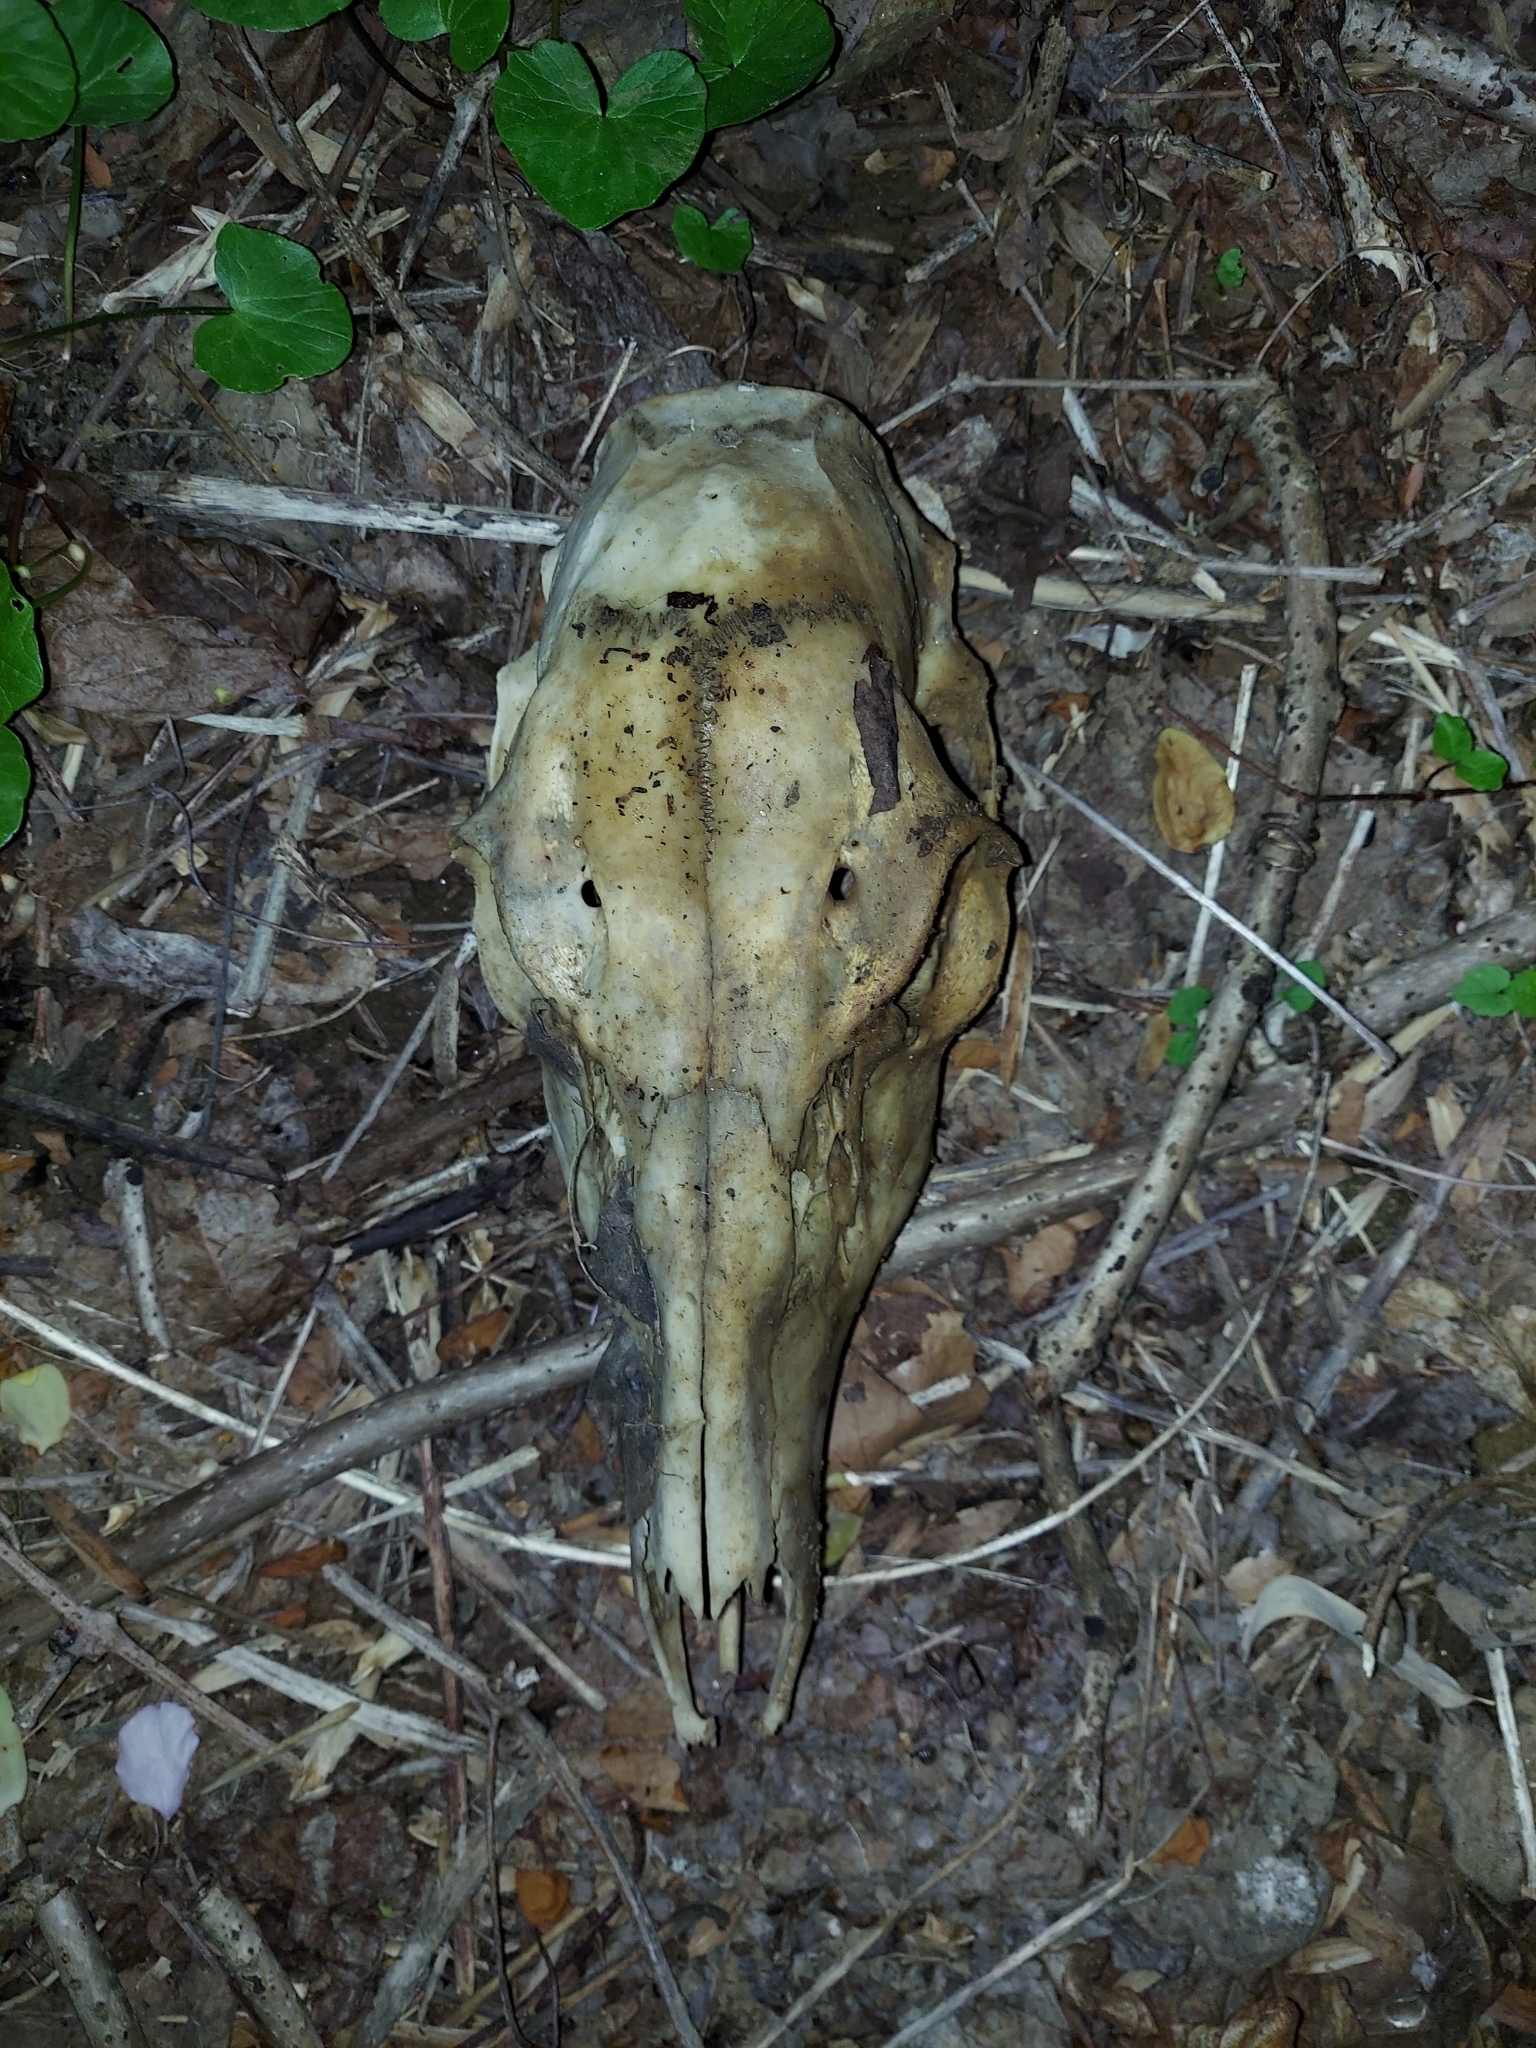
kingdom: Animalia
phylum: Chordata
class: Mammalia
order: Artiodactyla
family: Cervidae
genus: Odocoileus
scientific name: Odocoileus virginianus
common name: White-tailed deer
